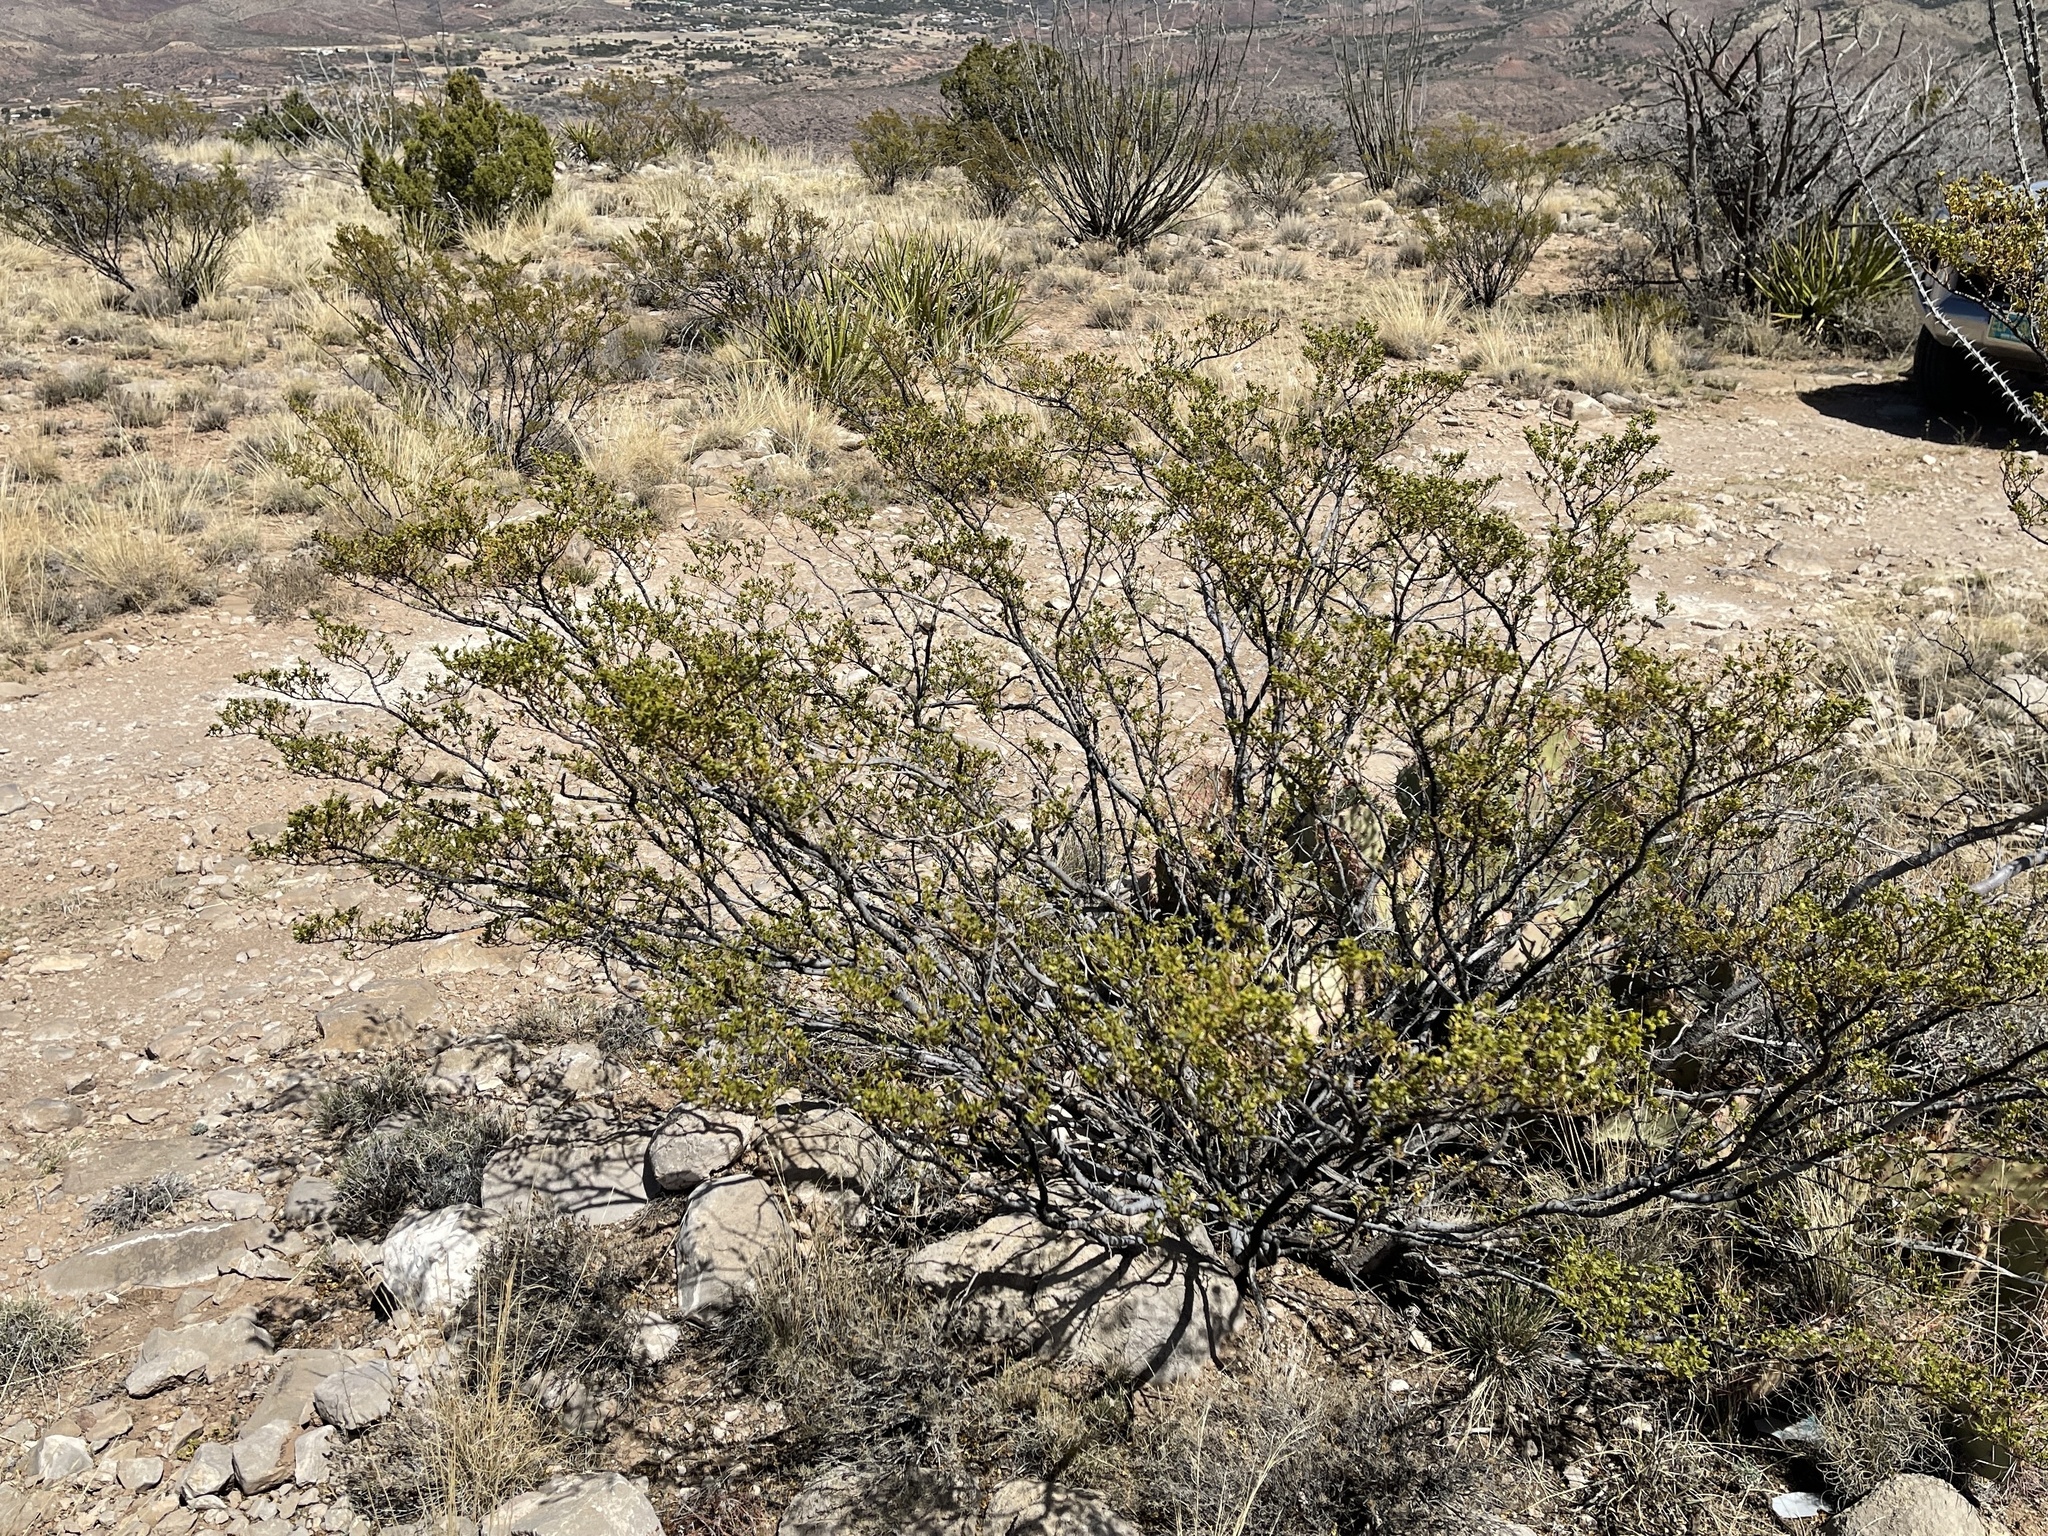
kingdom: Plantae
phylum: Tracheophyta
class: Magnoliopsida
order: Zygophyllales
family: Zygophyllaceae
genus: Larrea
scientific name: Larrea tridentata
